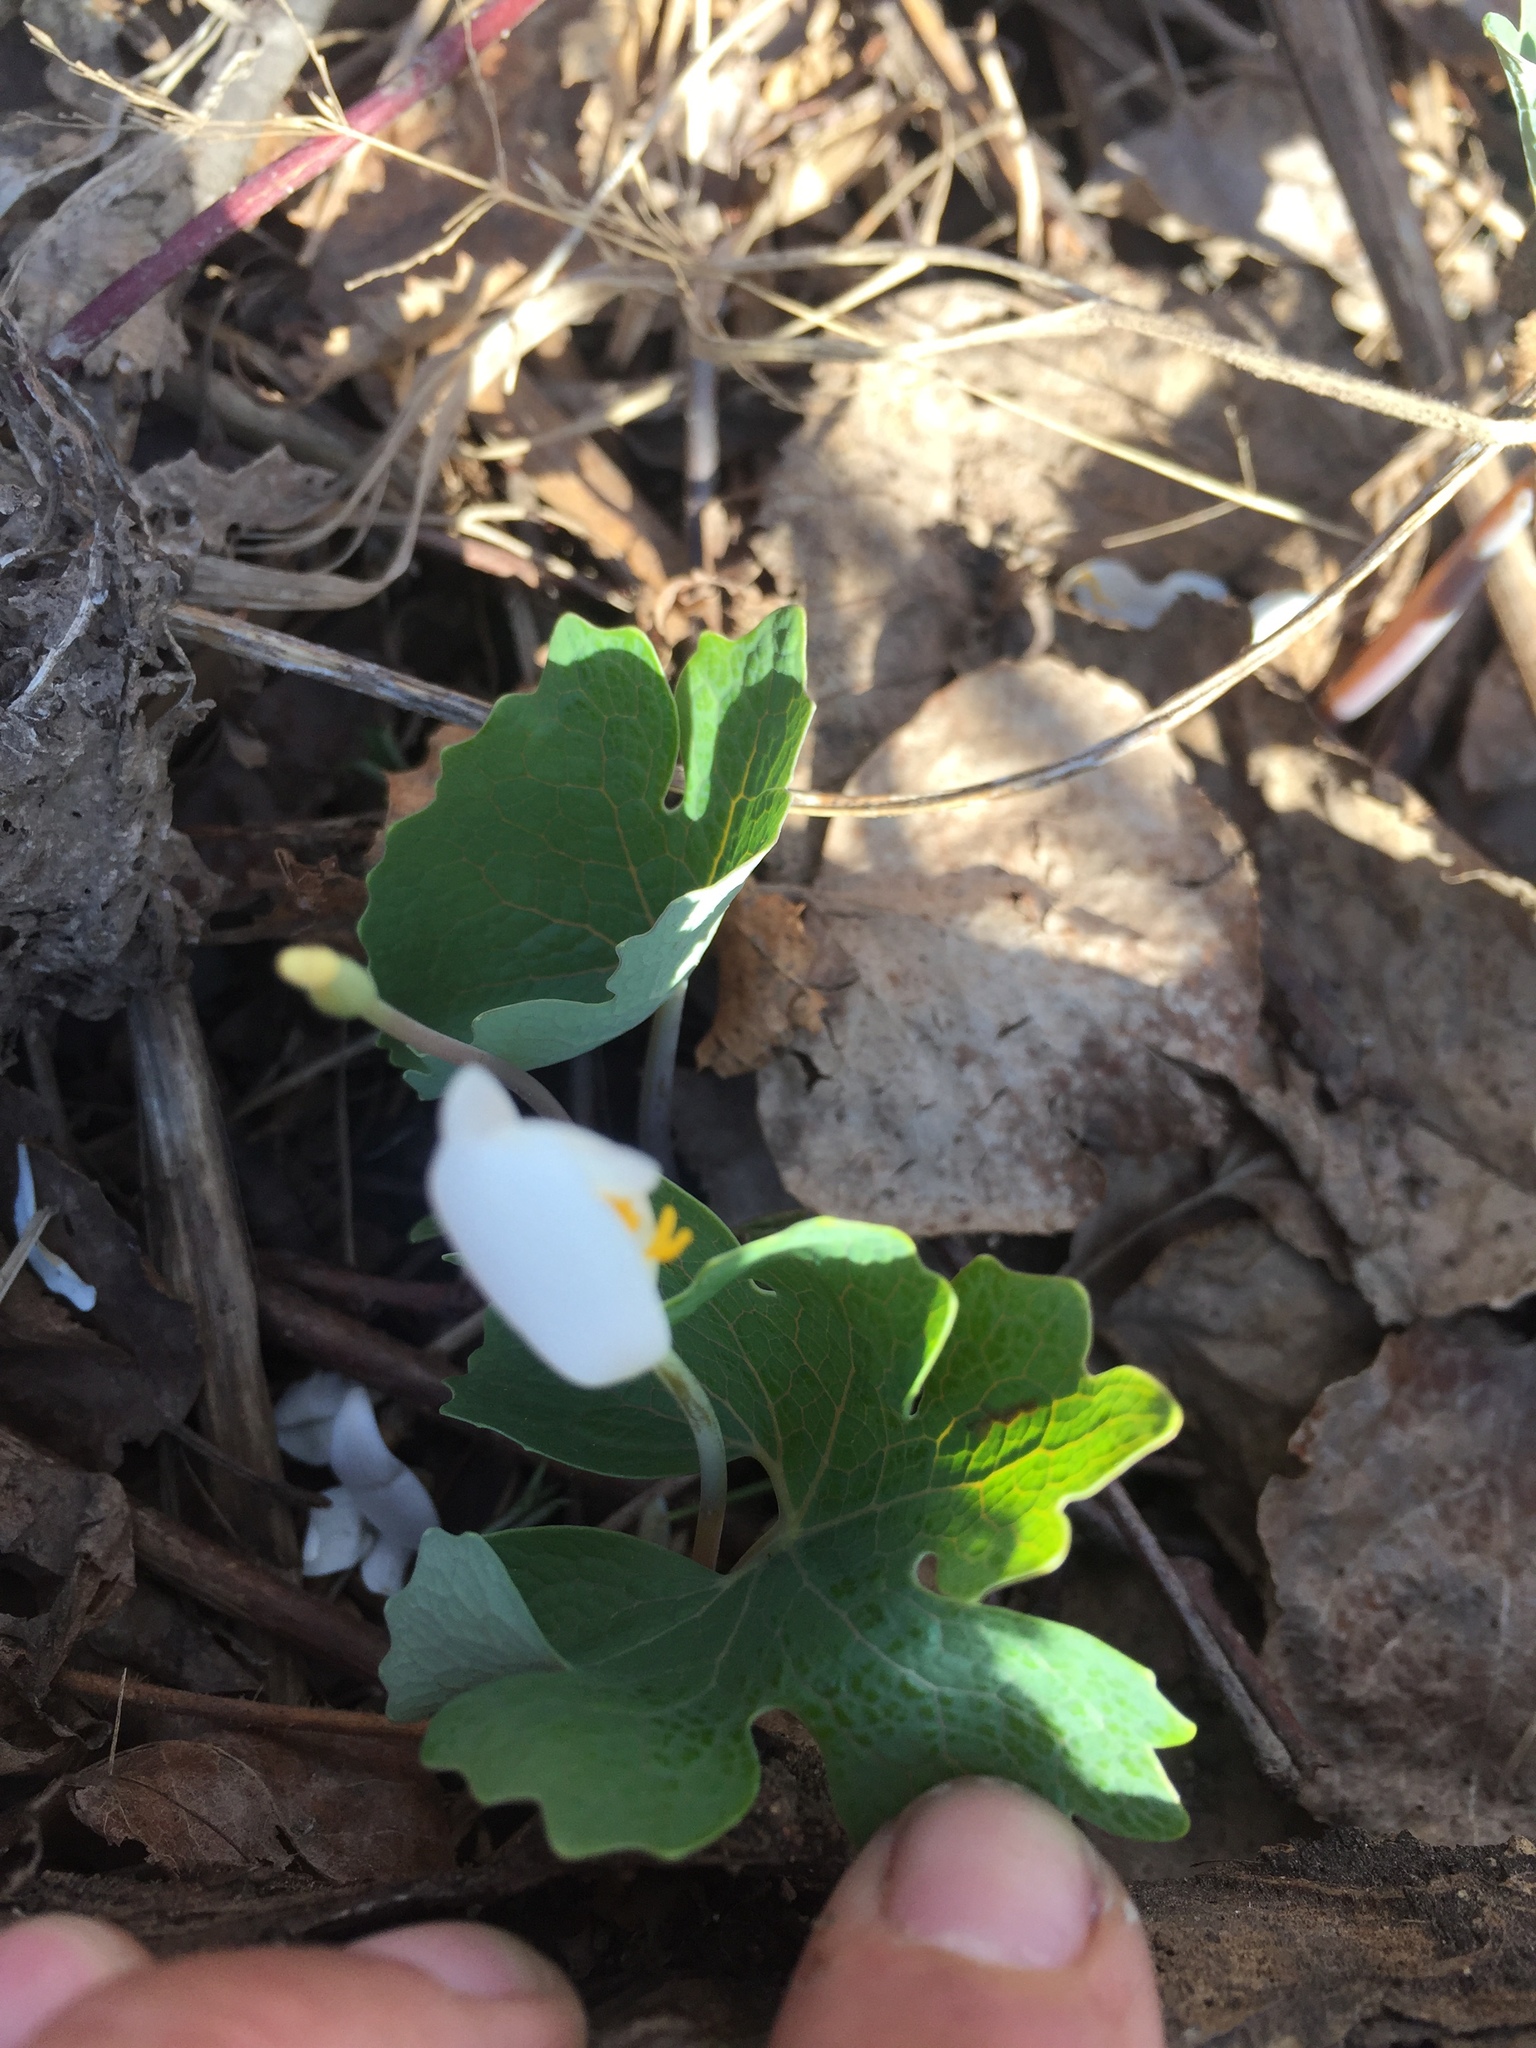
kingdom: Plantae
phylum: Tracheophyta
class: Magnoliopsida
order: Ranunculales
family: Papaveraceae
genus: Sanguinaria
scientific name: Sanguinaria canadensis
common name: Bloodroot
